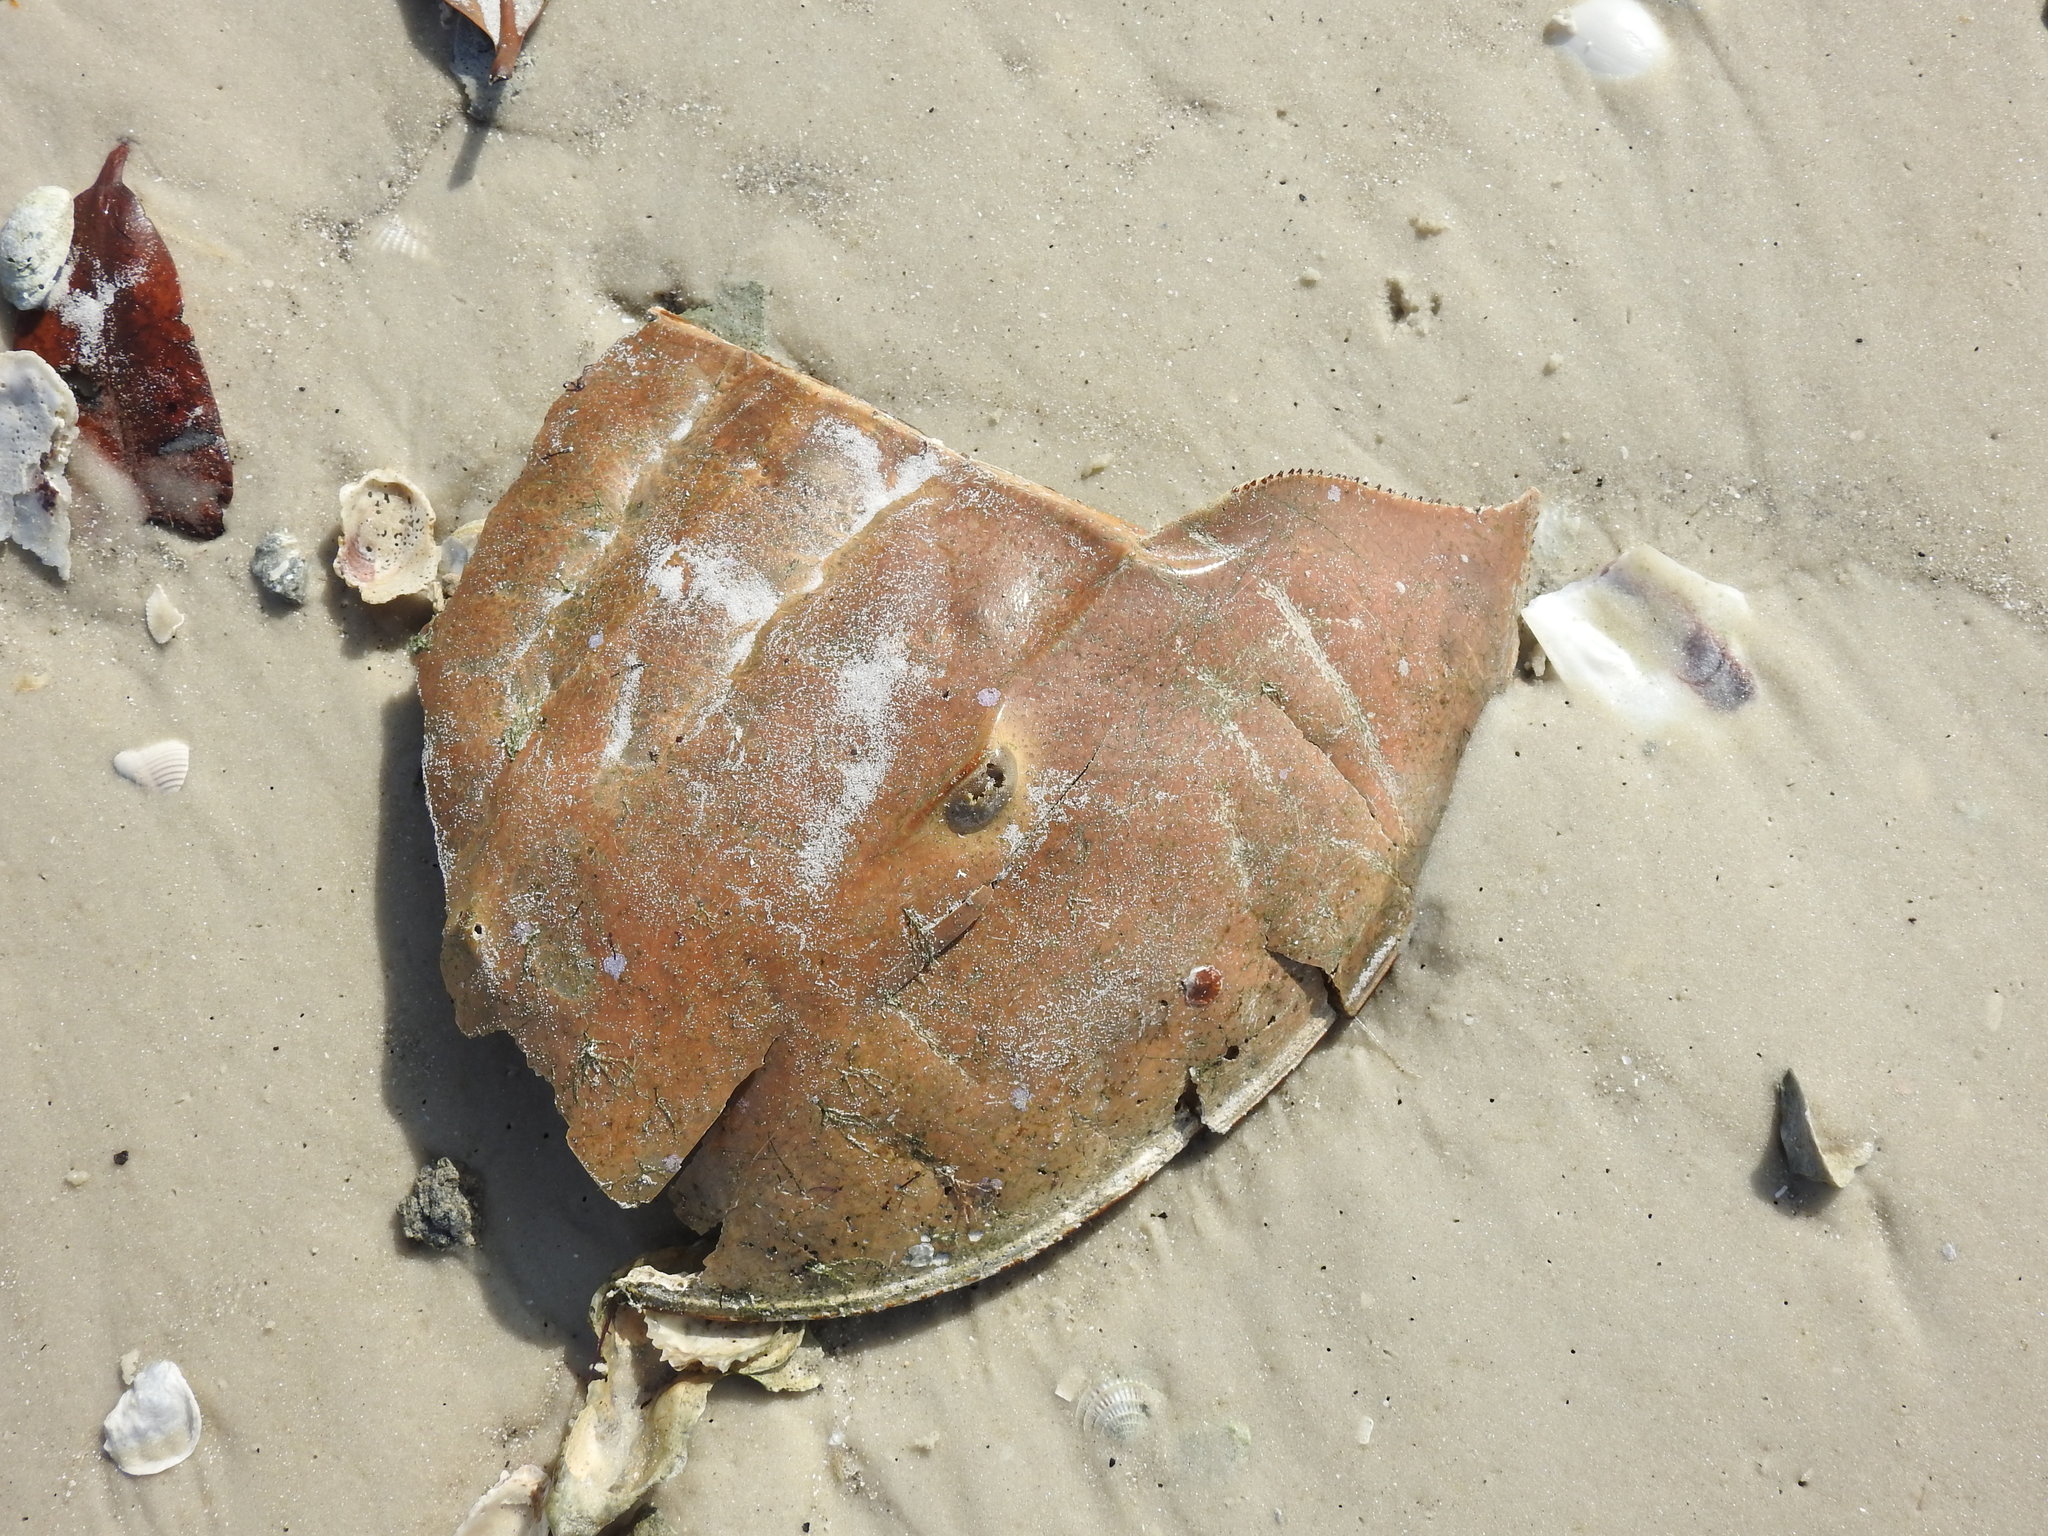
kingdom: Animalia
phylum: Arthropoda
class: Merostomata
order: Xiphosurida
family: Limulidae
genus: Limulus
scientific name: Limulus polyphemus
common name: Horseshoe crab
